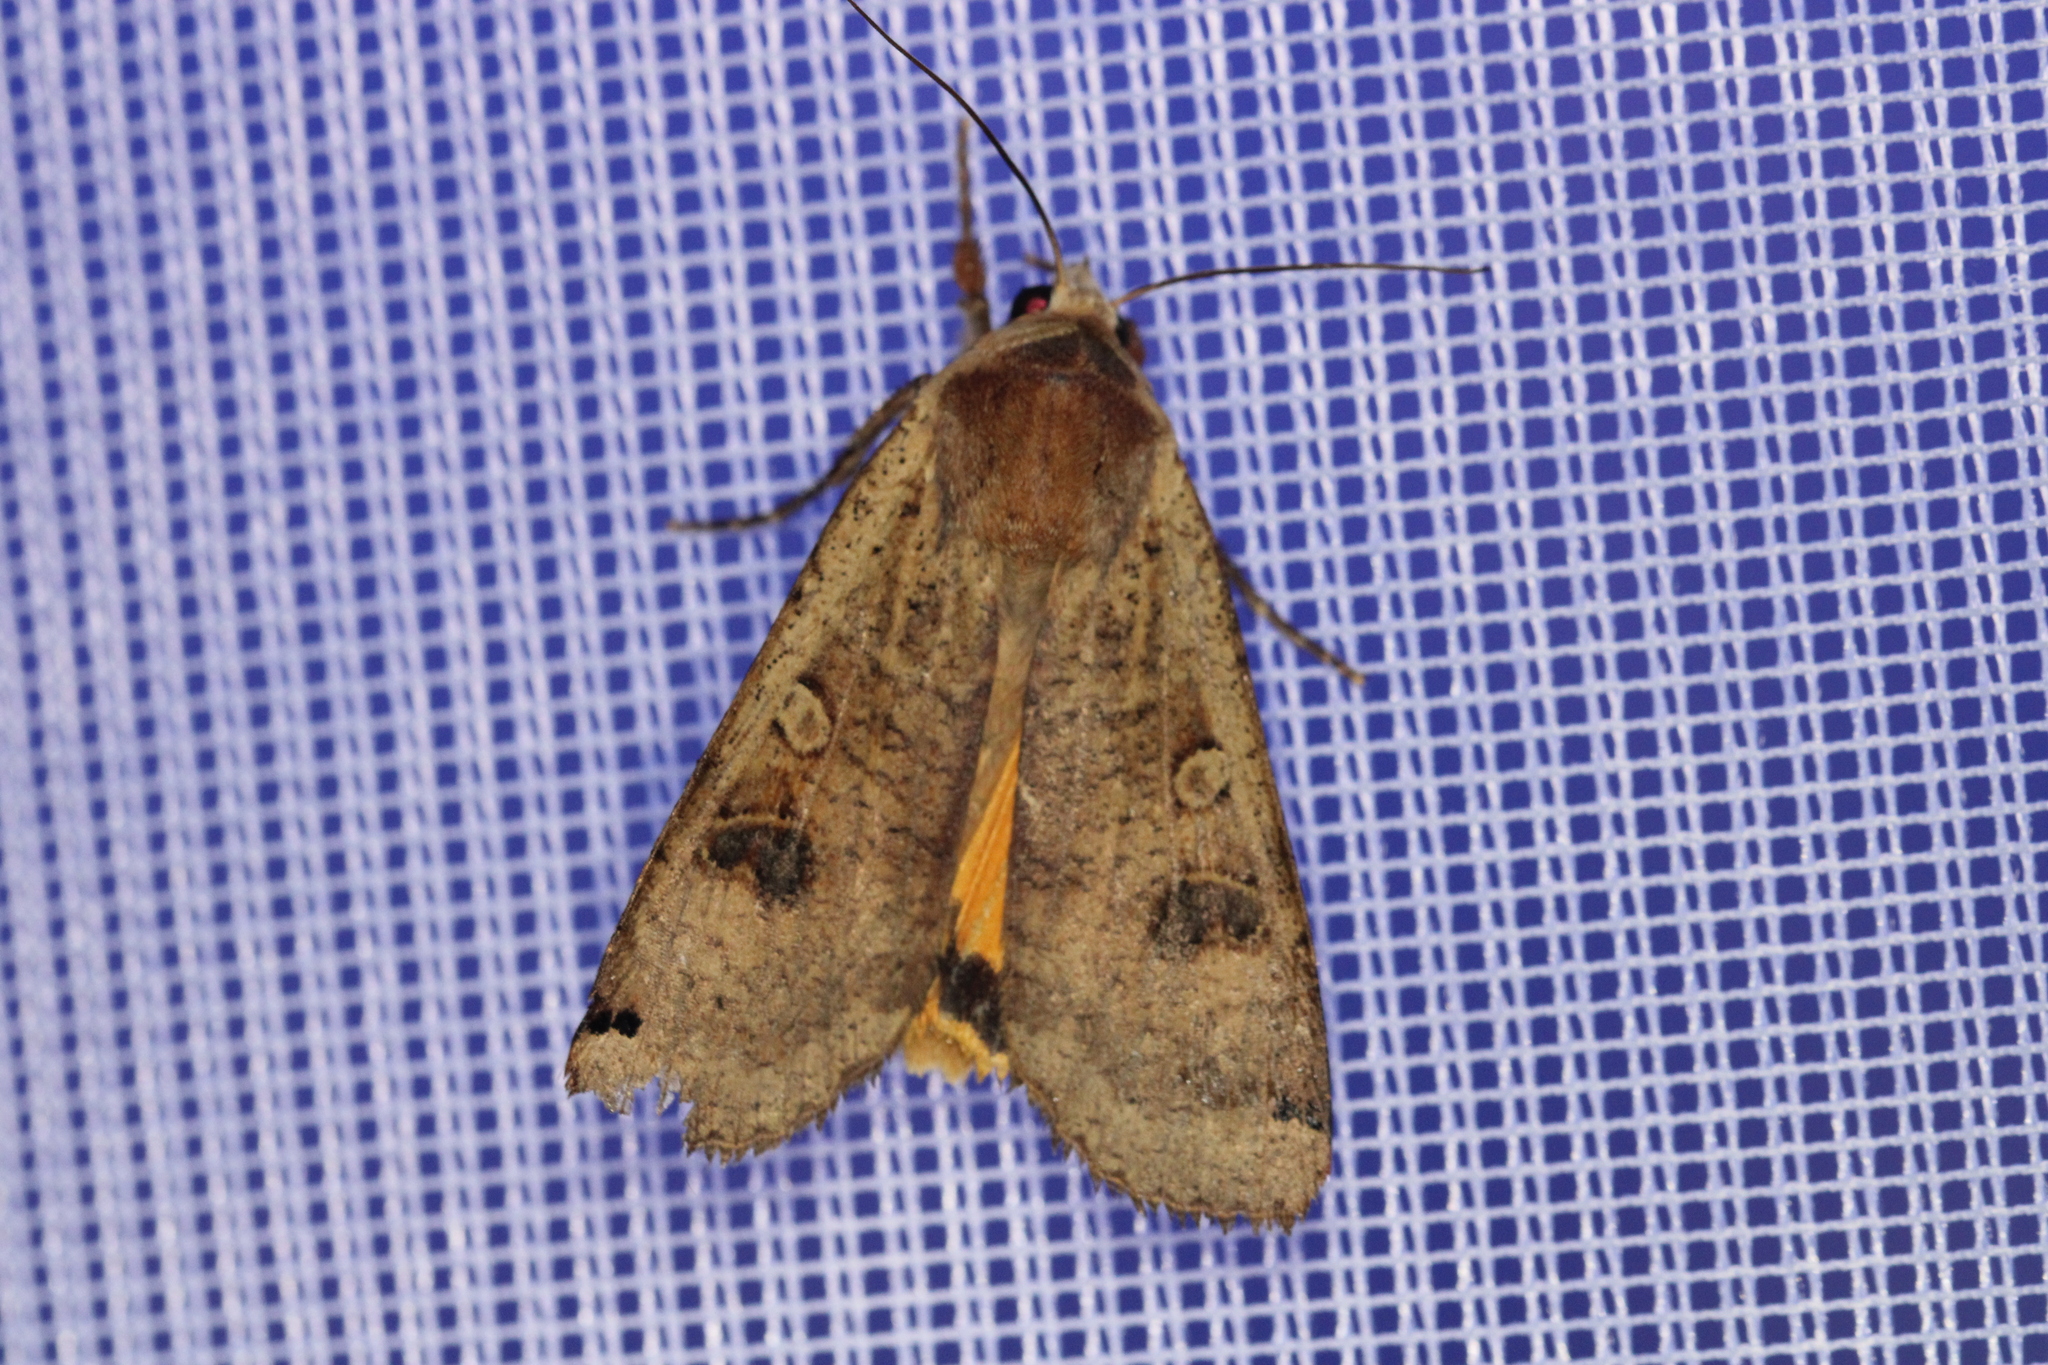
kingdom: Animalia
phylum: Arthropoda
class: Insecta
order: Lepidoptera
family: Noctuidae
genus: Noctua
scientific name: Noctua pronuba
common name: Large yellow underwing
